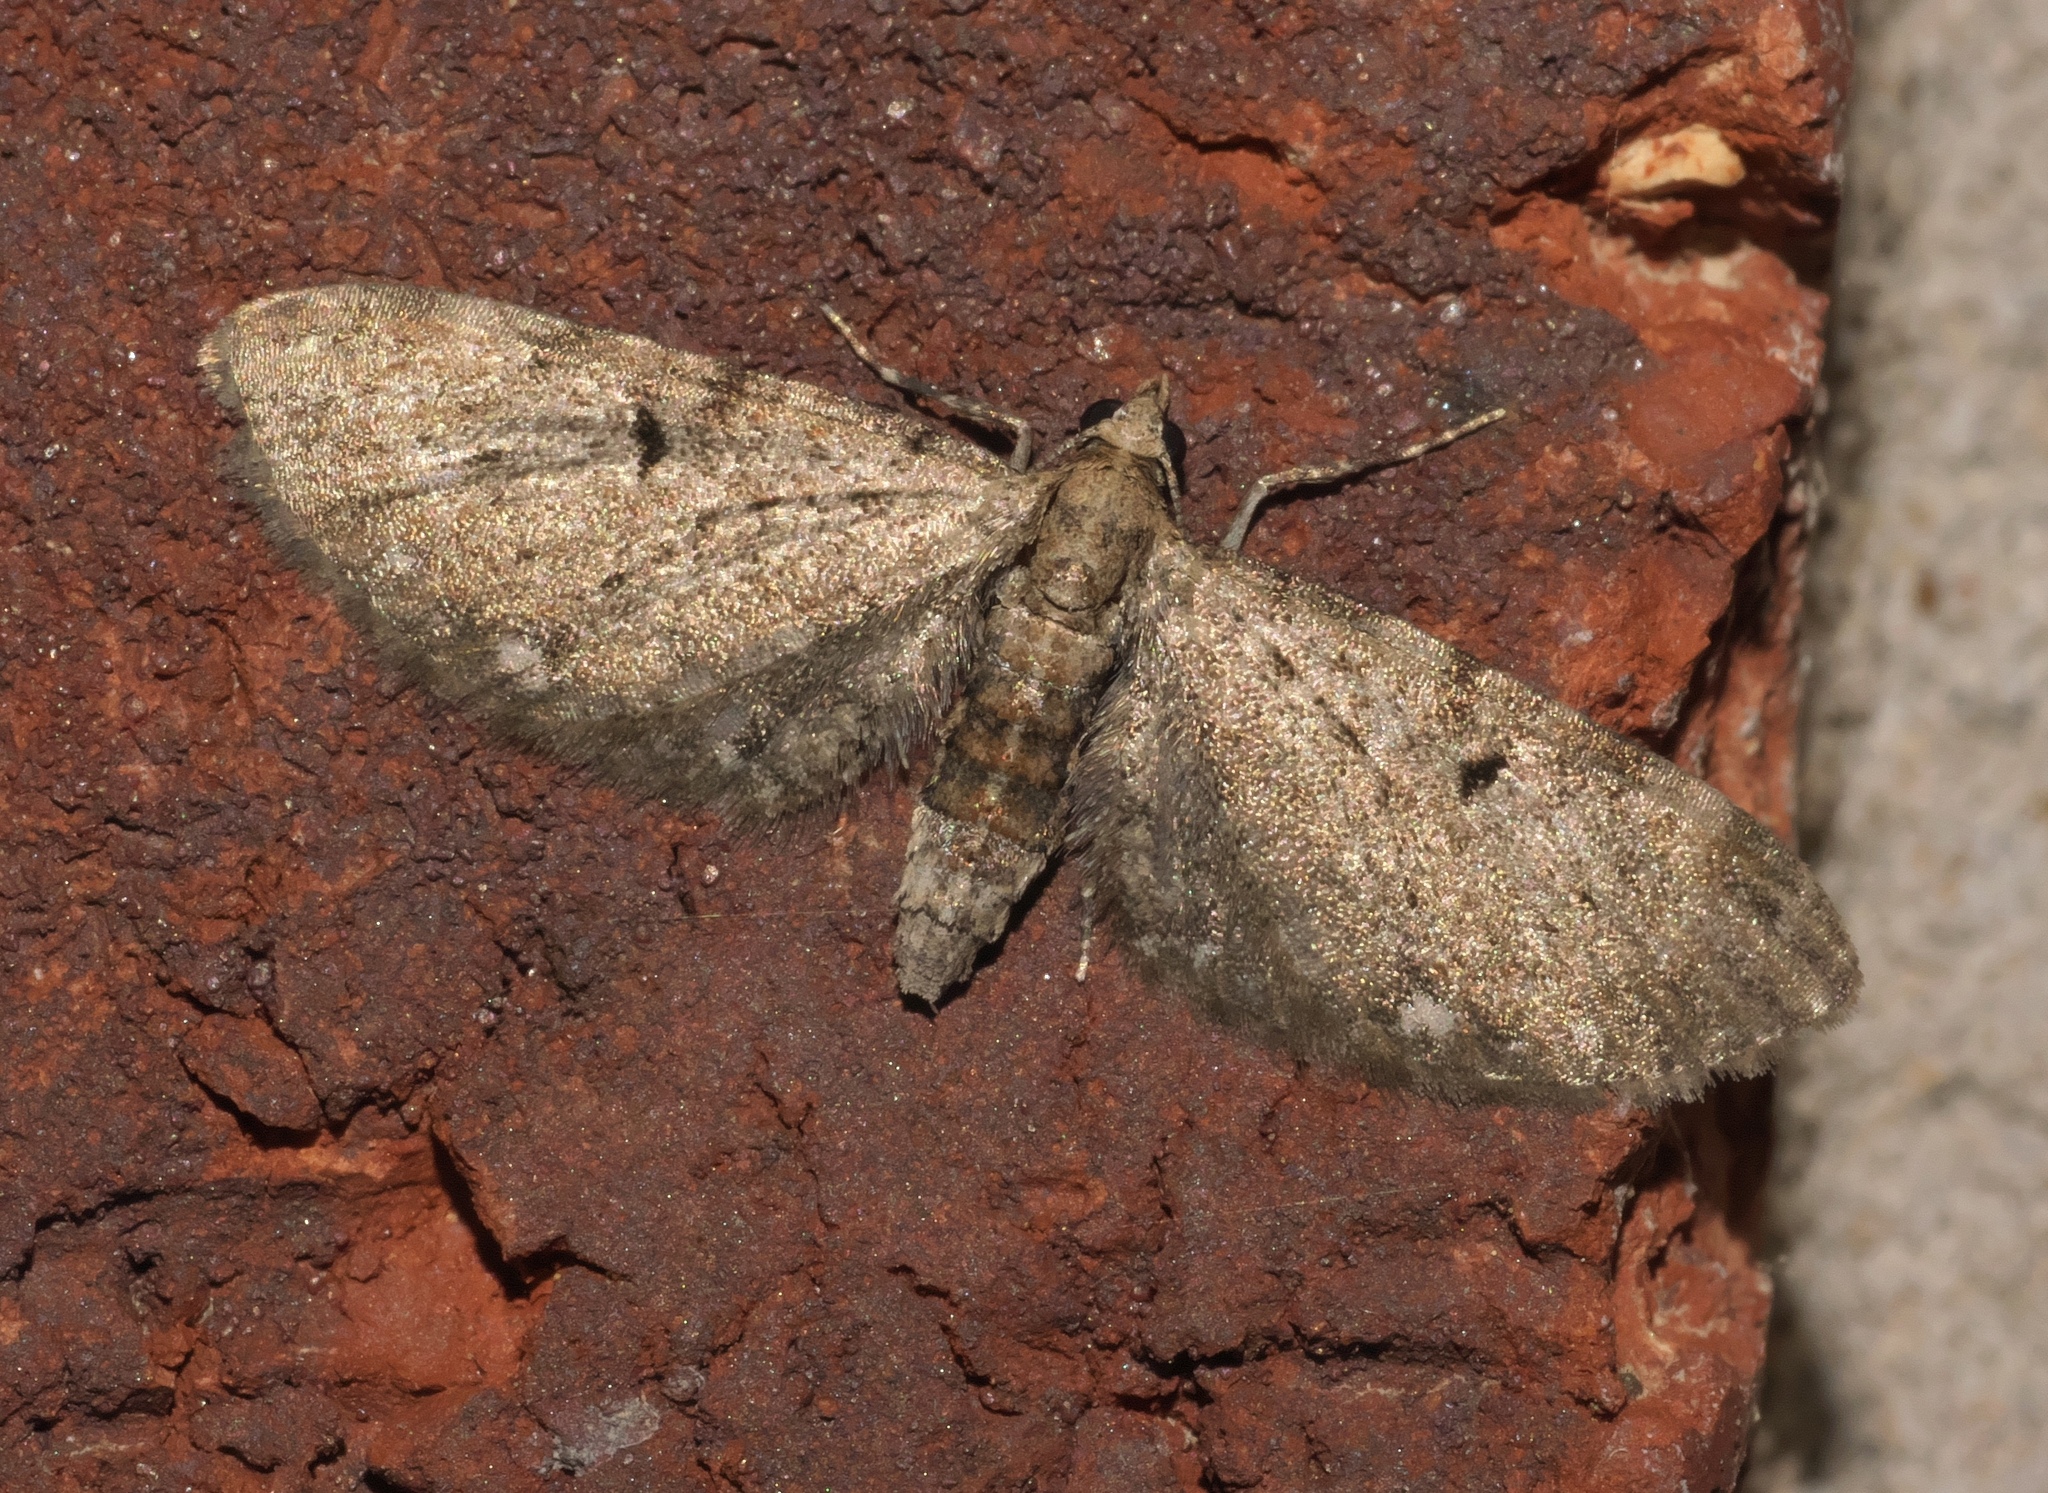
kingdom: Animalia
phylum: Arthropoda
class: Insecta
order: Lepidoptera
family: Geometridae
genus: Eupithecia
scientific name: Eupithecia miserulata
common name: Common eupithecia
